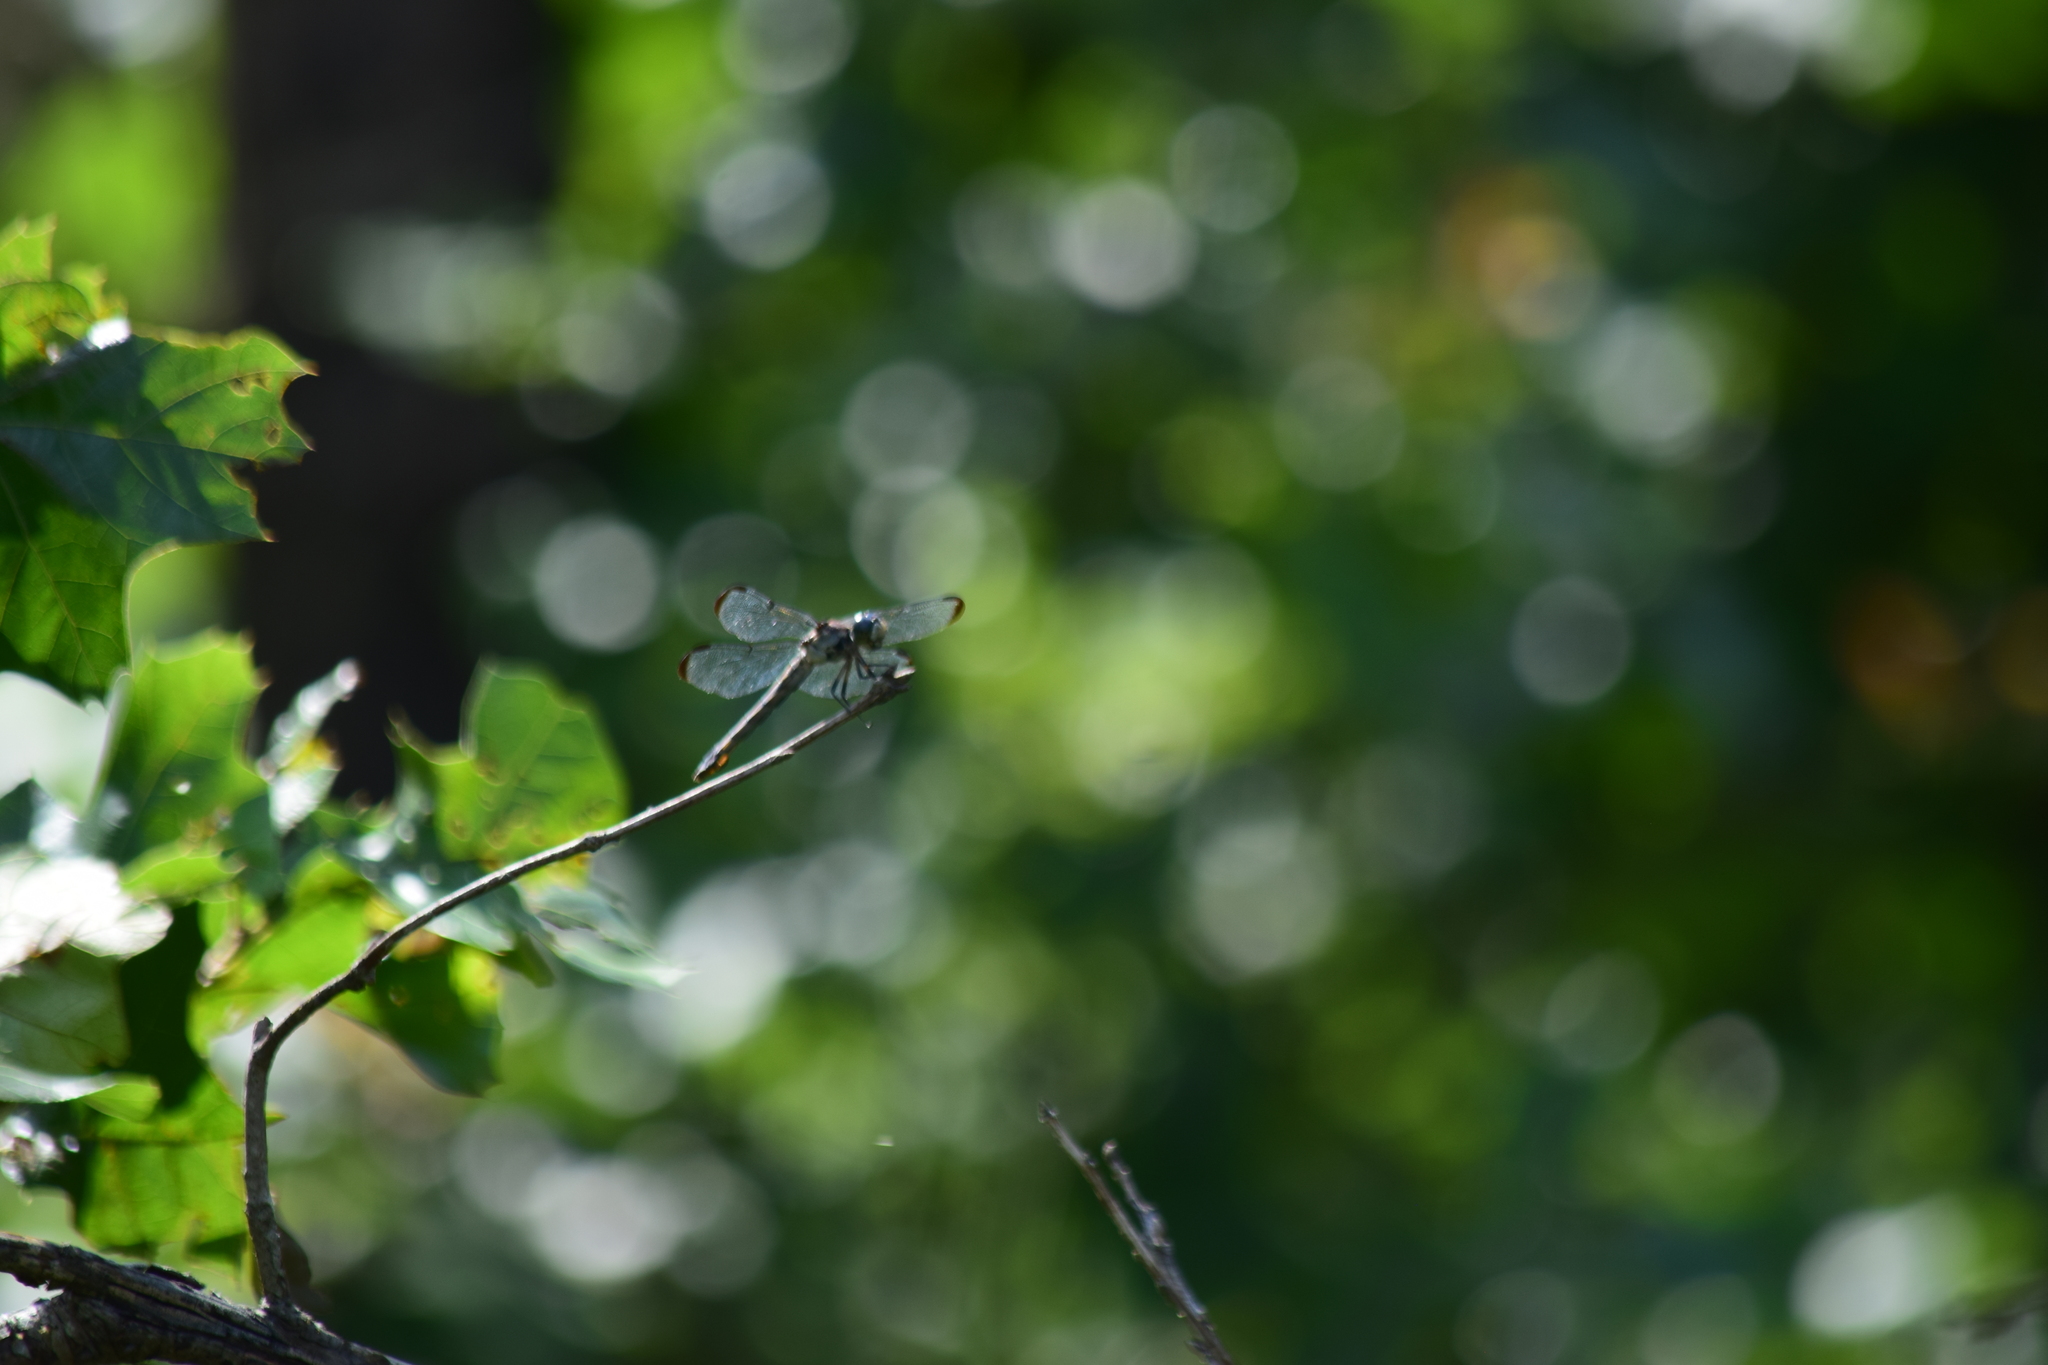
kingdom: Animalia
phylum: Arthropoda
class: Insecta
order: Odonata
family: Libellulidae
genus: Libellula
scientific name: Libellula vibrans
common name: Great blue skimmer
